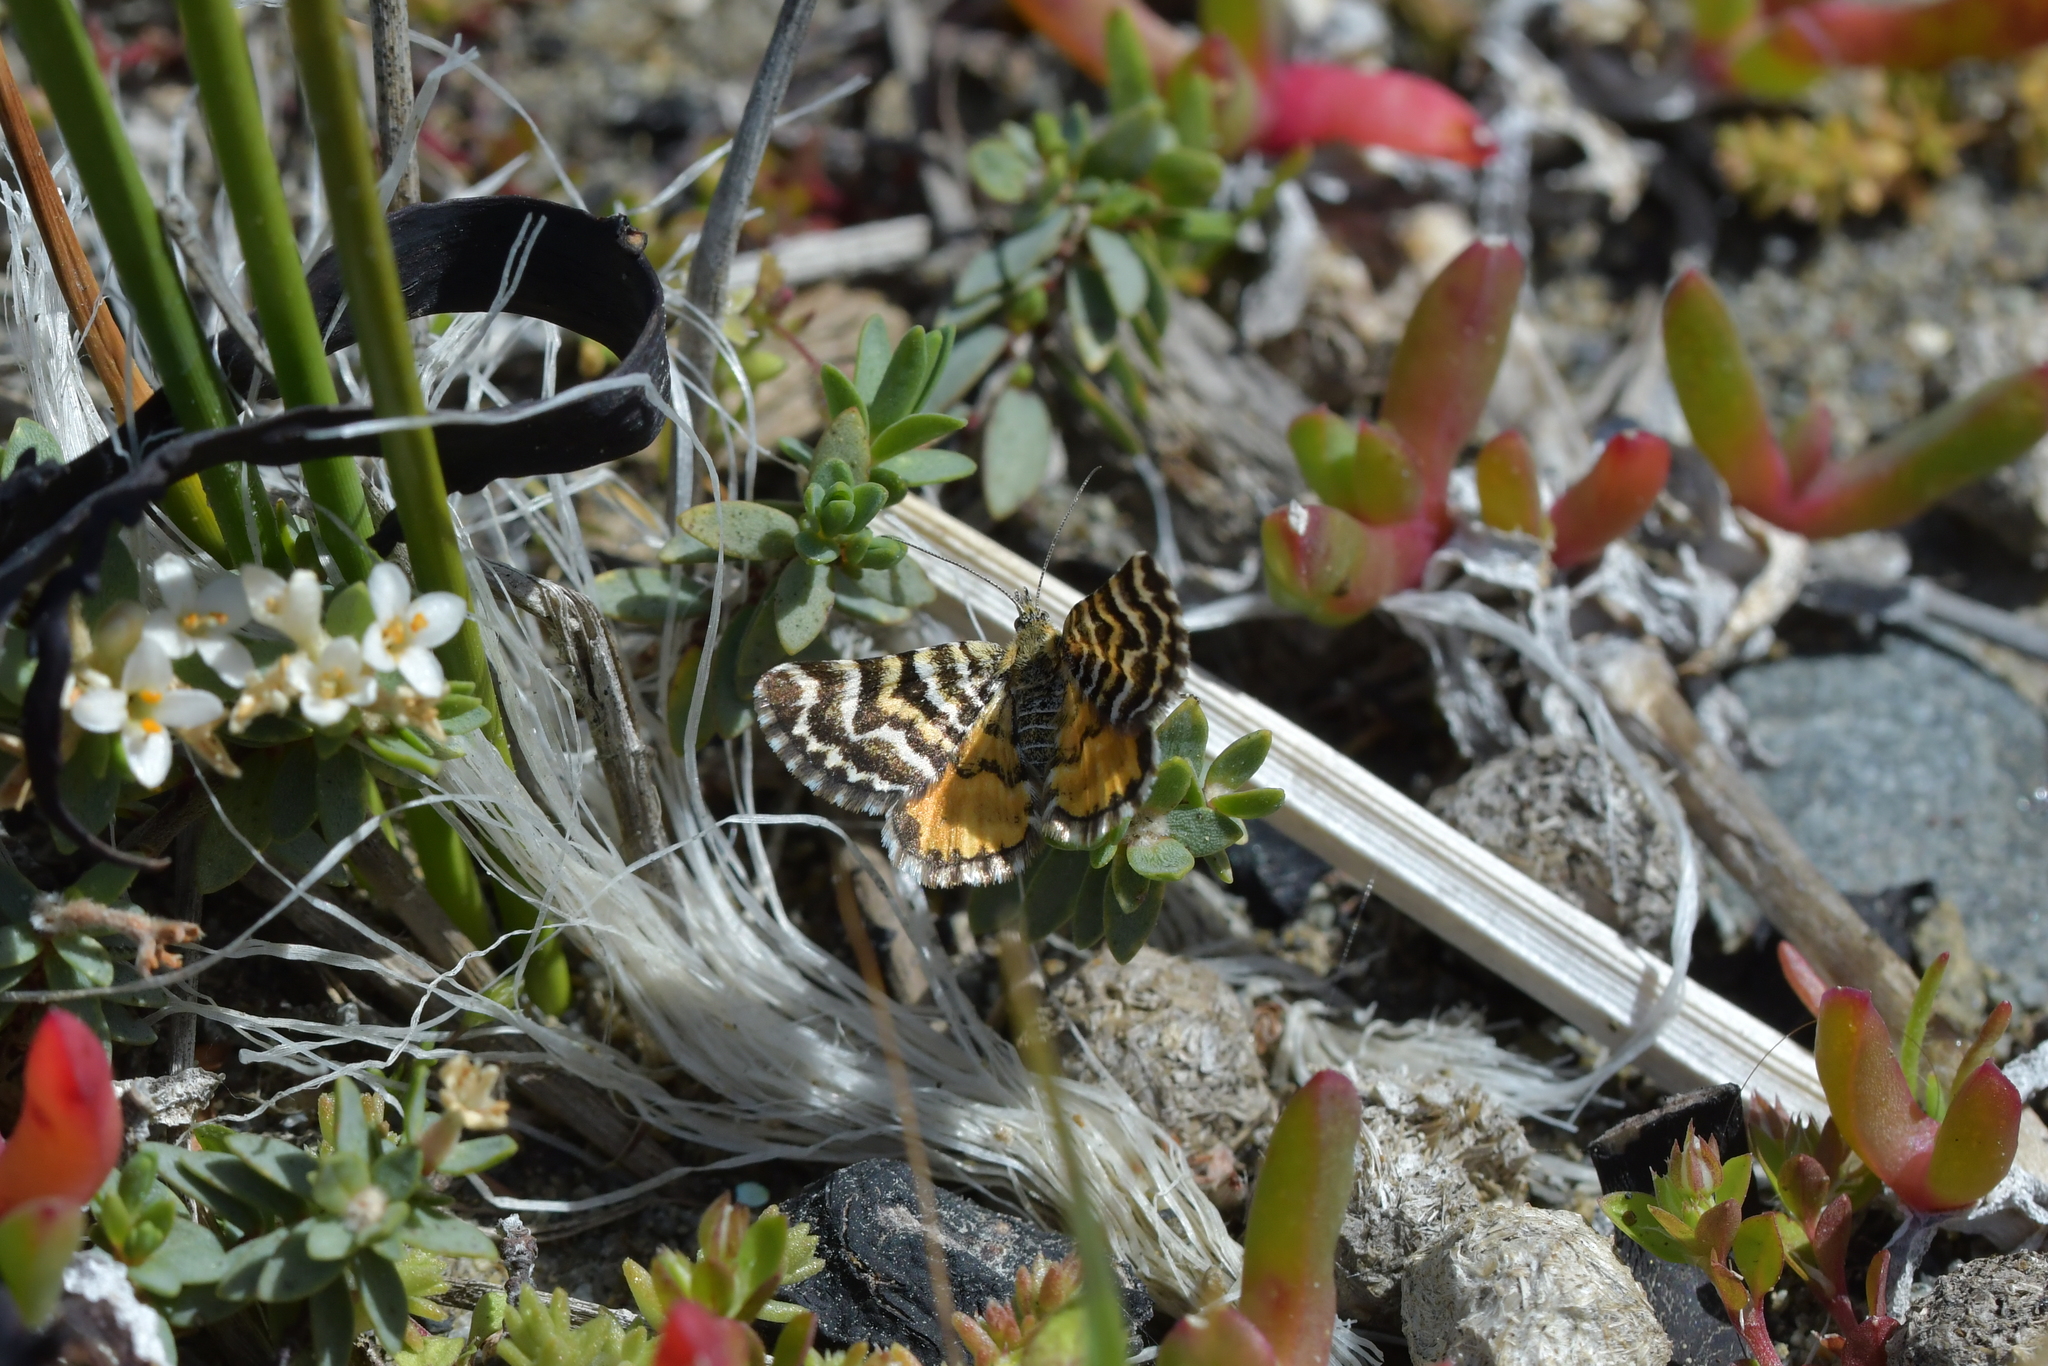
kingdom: Animalia
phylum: Arthropoda
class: Insecta
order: Lepidoptera
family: Geometridae
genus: Notoreas
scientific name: Notoreas perornata
